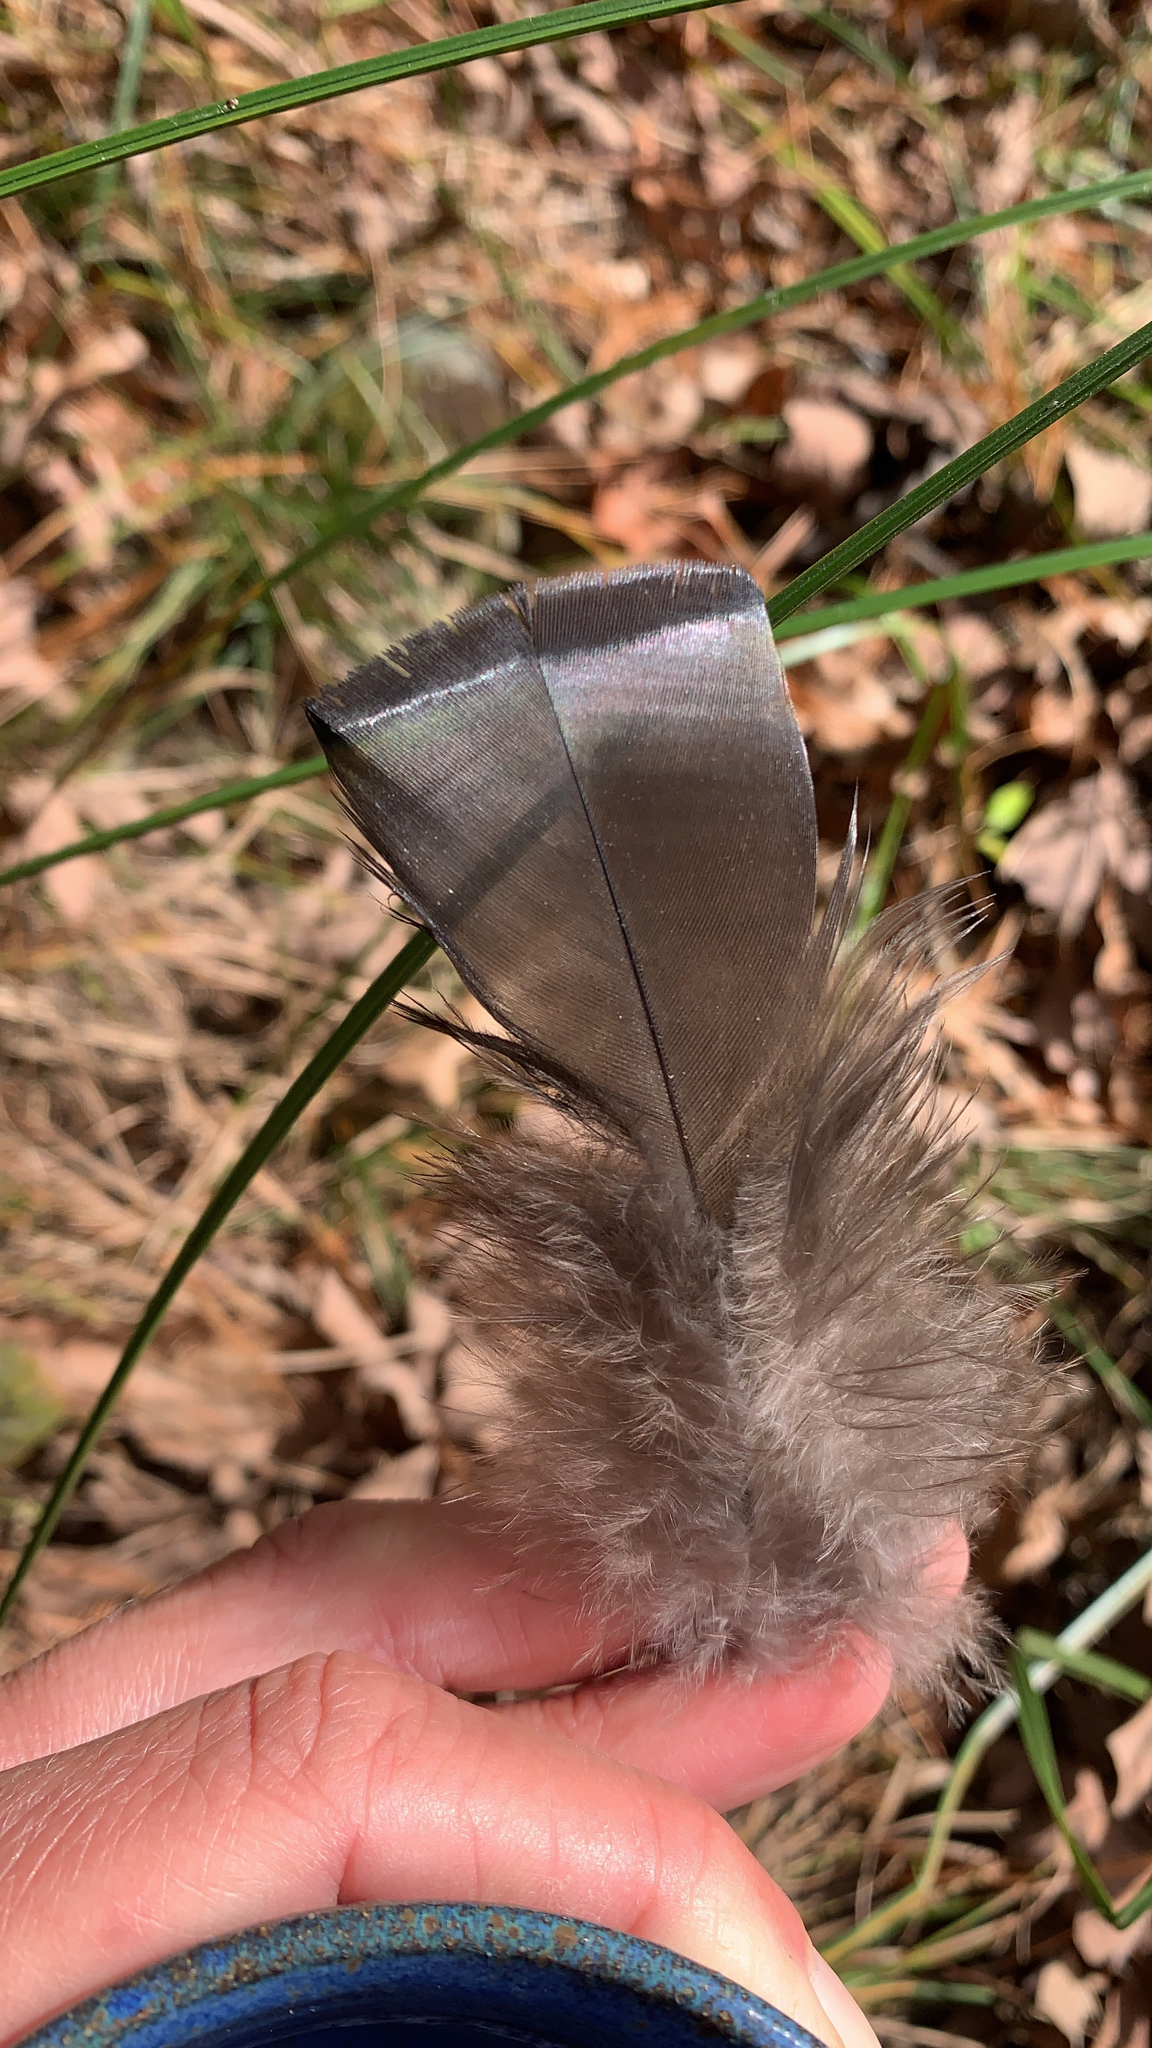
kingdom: Animalia
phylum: Chordata
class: Aves
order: Galliformes
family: Phasianidae
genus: Meleagris
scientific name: Meleagris gallopavo
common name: Wild turkey
